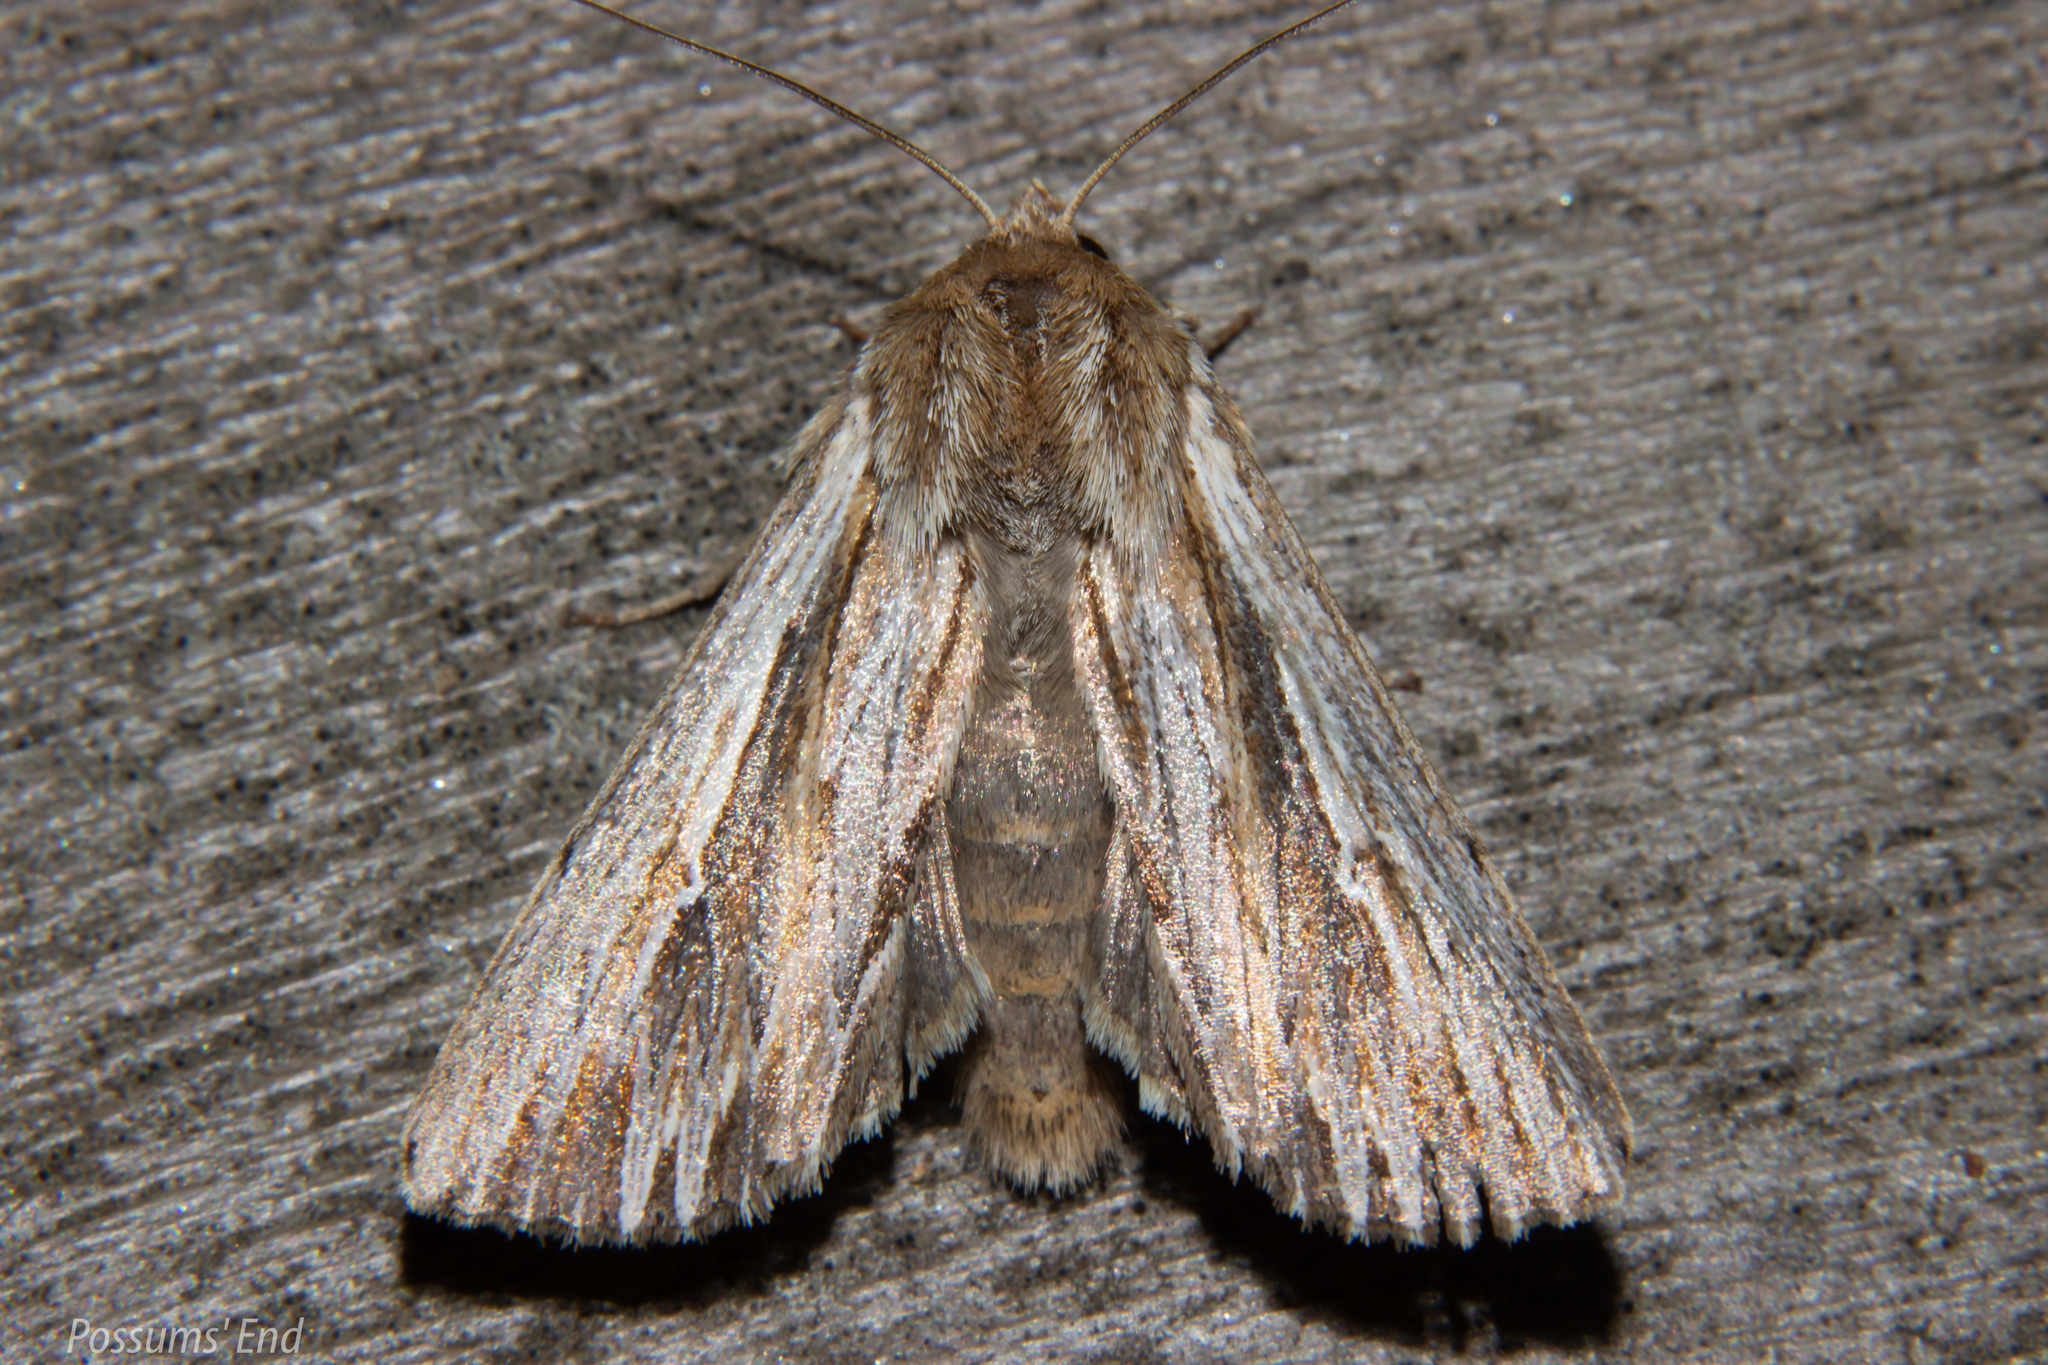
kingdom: Animalia
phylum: Arthropoda
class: Insecta
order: Lepidoptera
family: Noctuidae
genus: Persectania
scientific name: Persectania aversa
